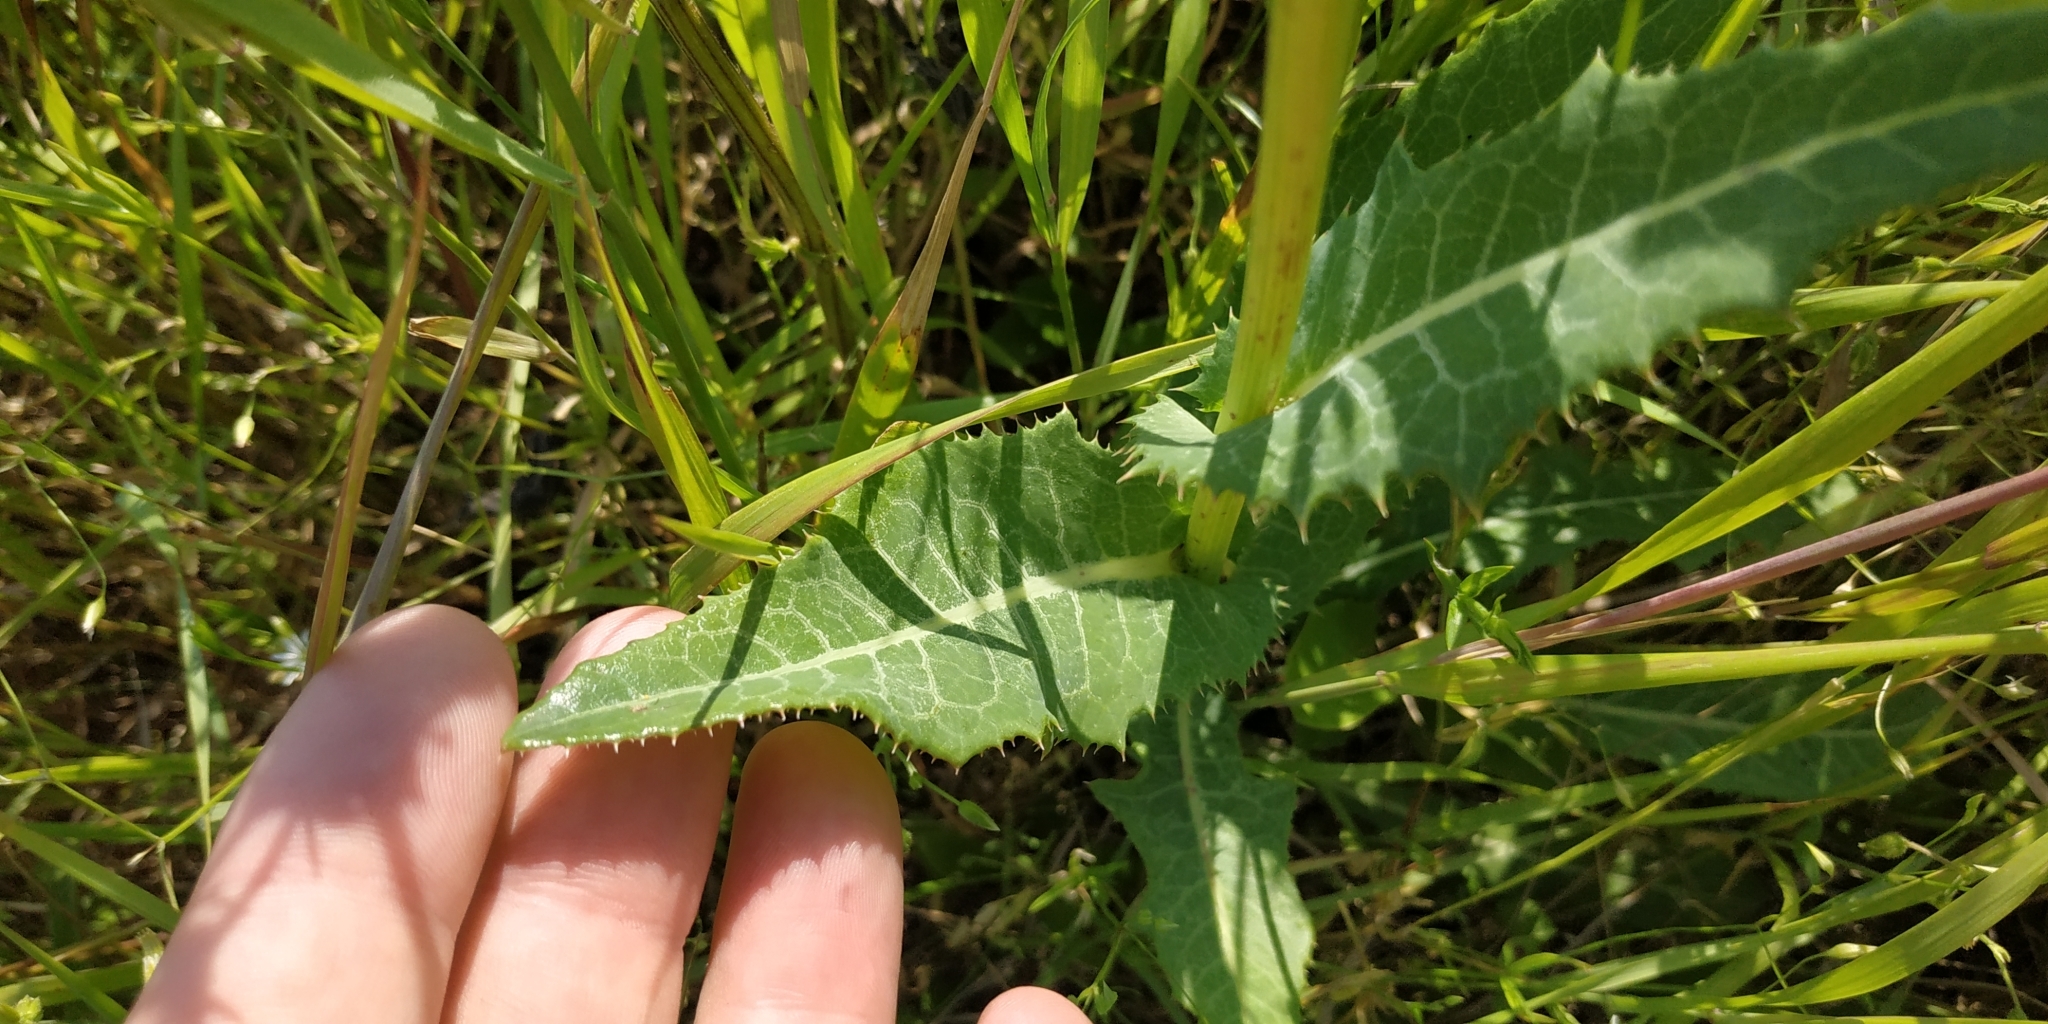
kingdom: Plantae
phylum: Tracheophyta
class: Magnoliopsida
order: Asterales
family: Asteraceae
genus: Sonchus
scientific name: Sonchus arvensis
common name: Perennial sow-thistle
